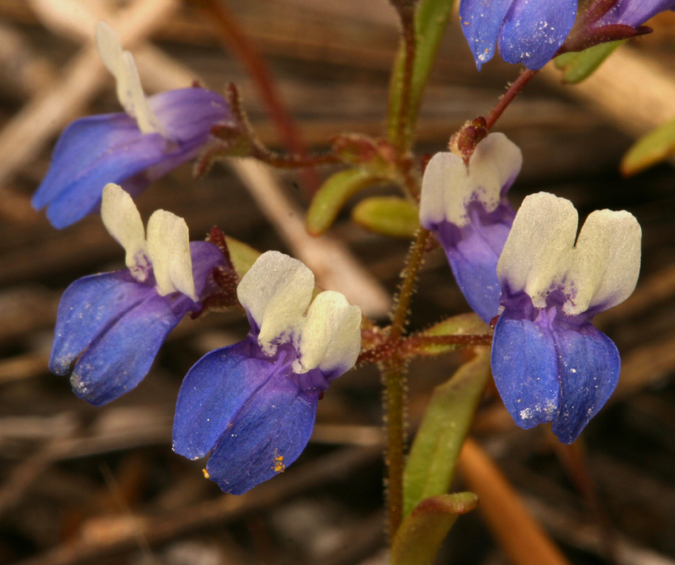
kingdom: Plantae
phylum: Tracheophyta
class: Magnoliopsida
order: Lamiales
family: Plantaginaceae
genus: Collinsia
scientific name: Collinsia wrightii
